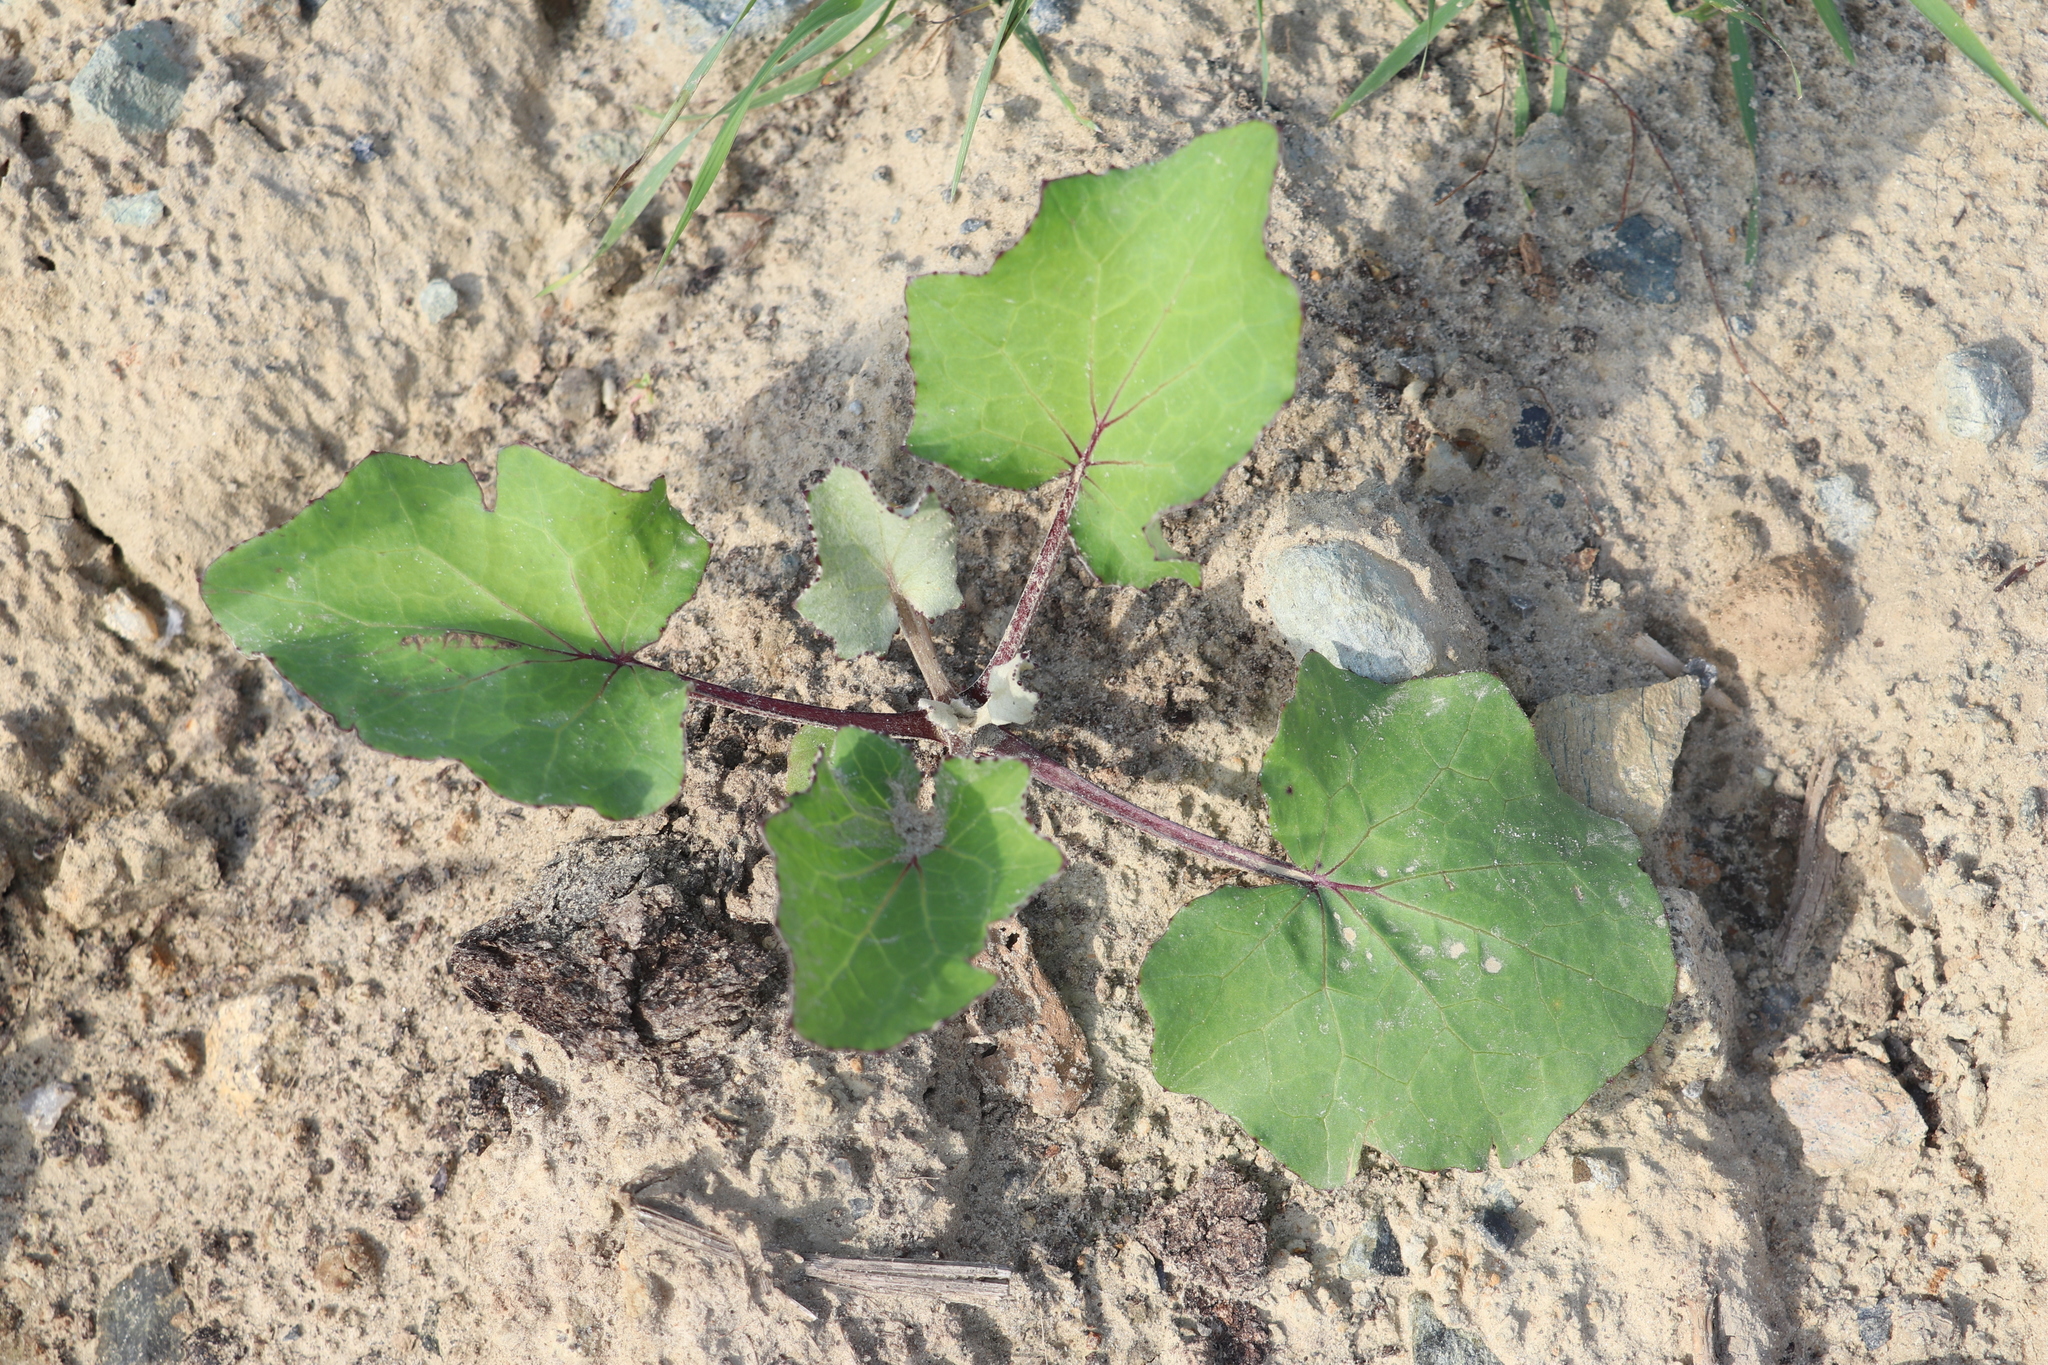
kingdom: Plantae
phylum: Tracheophyta
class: Magnoliopsida
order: Asterales
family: Asteraceae
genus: Tussilago
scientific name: Tussilago farfara
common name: Coltsfoot
